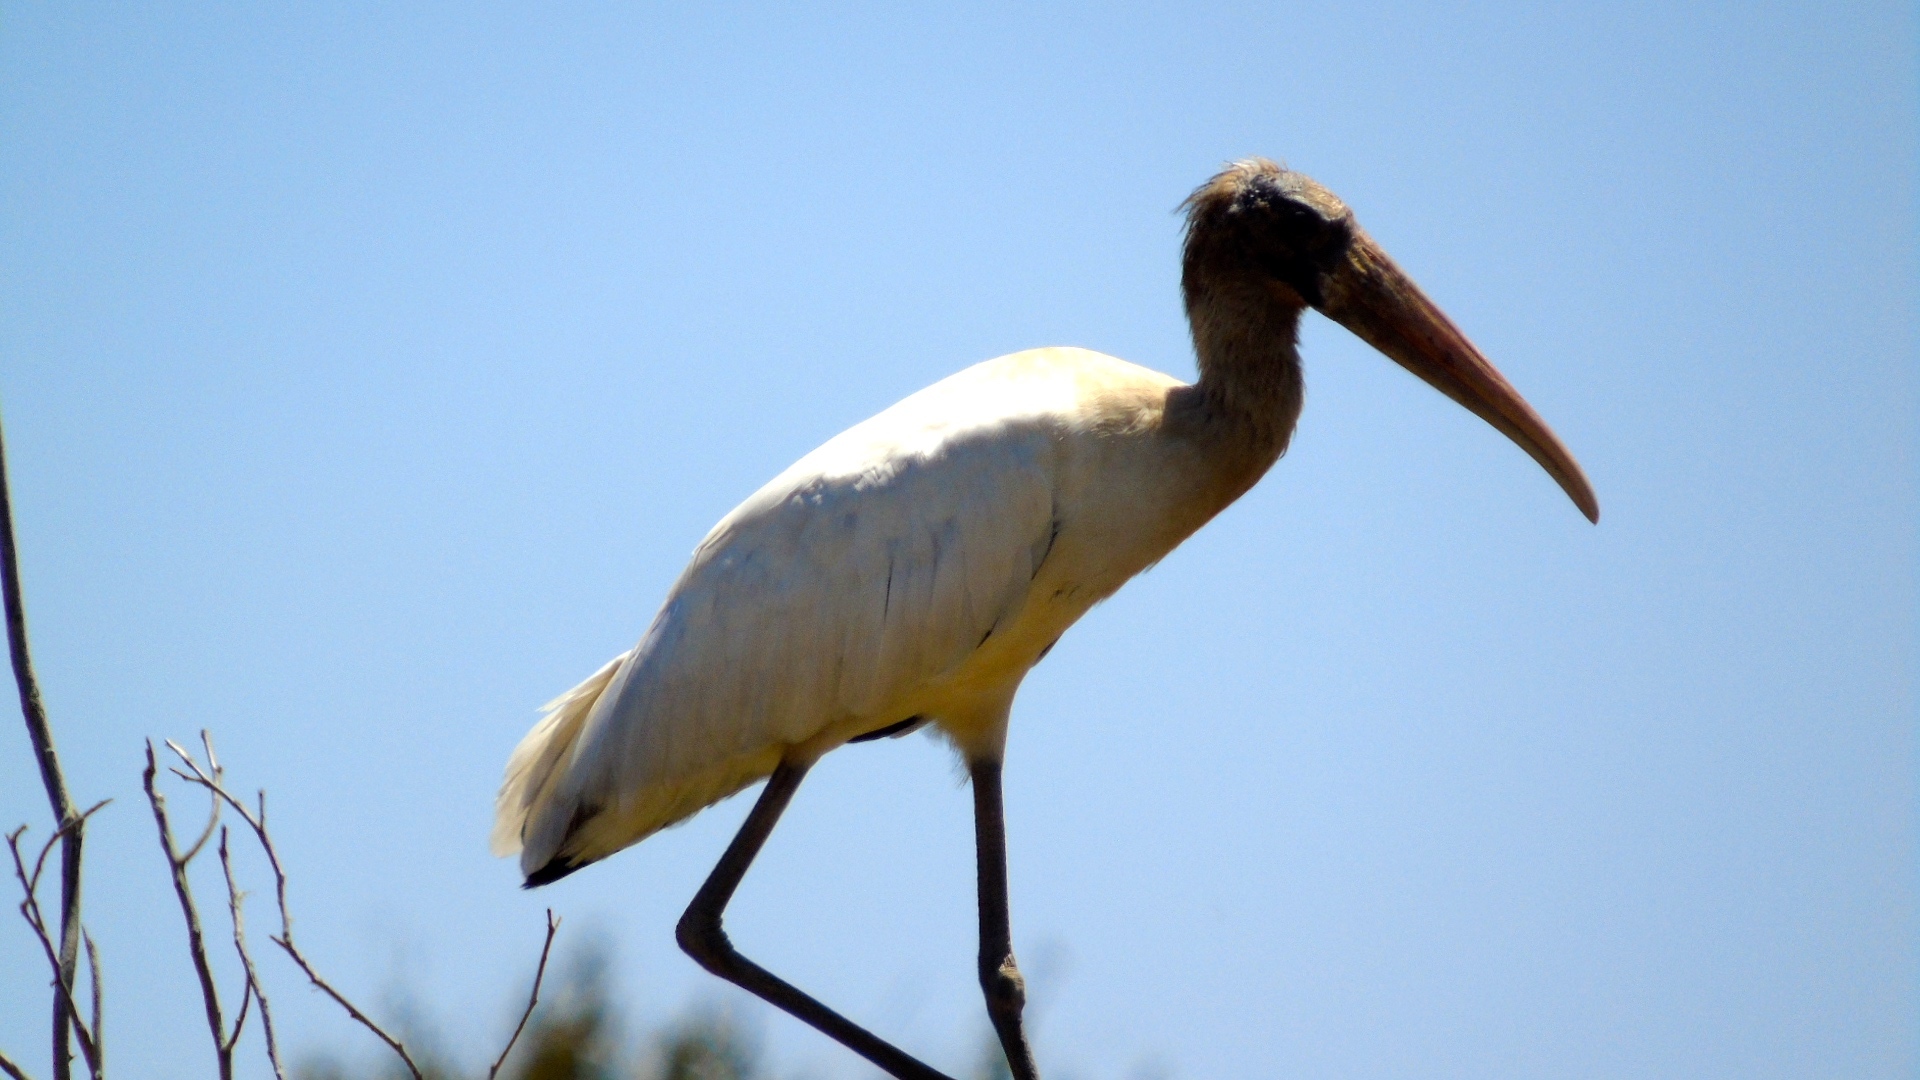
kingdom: Animalia
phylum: Chordata
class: Aves
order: Ciconiiformes
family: Ciconiidae
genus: Mycteria
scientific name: Mycteria americana
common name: Wood stork
